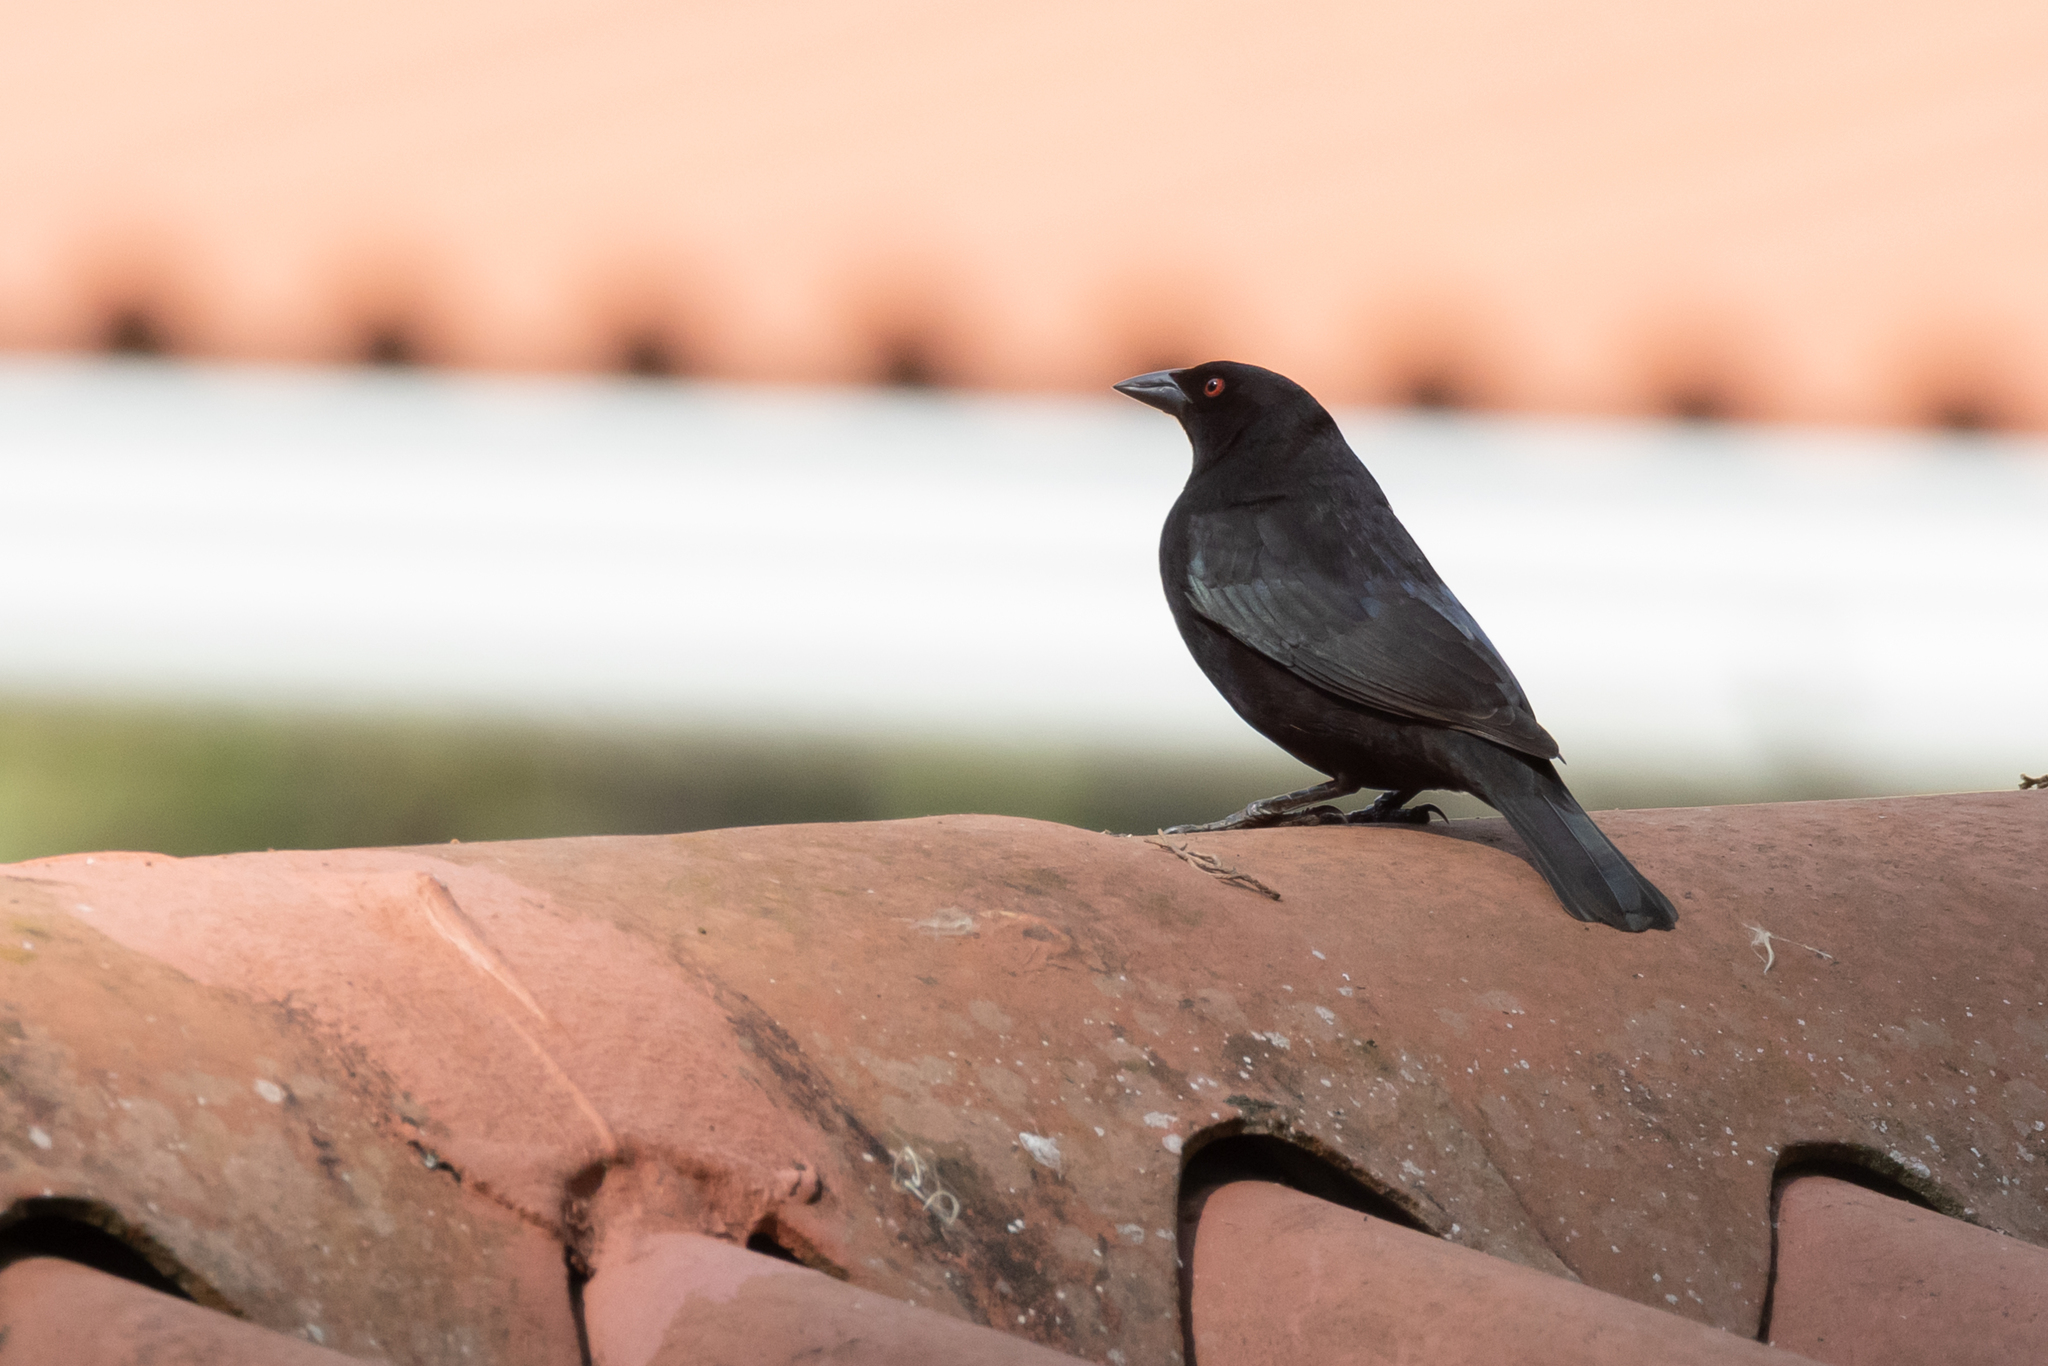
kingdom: Animalia
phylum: Chordata
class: Aves
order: Passeriformes
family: Icteridae
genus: Molothrus
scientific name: Molothrus aeneus
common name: Bronzed cowbird
